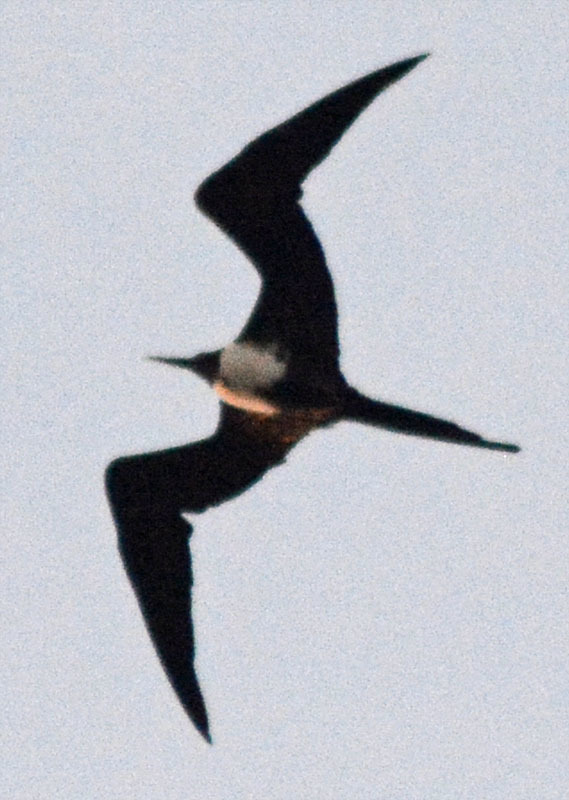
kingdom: Animalia
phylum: Chordata
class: Aves
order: Suliformes
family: Fregatidae
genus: Fregata
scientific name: Fregata magnificens
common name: Magnificent frigatebird
